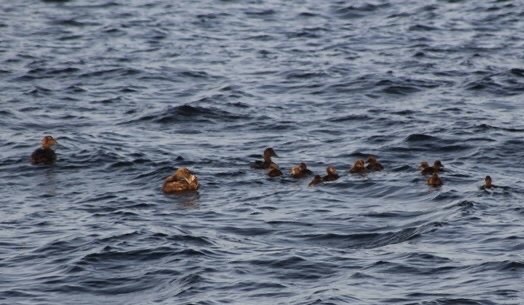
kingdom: Animalia
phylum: Chordata
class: Aves
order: Anseriformes
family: Anatidae
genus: Somateria
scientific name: Somateria mollissima
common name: Common eider
